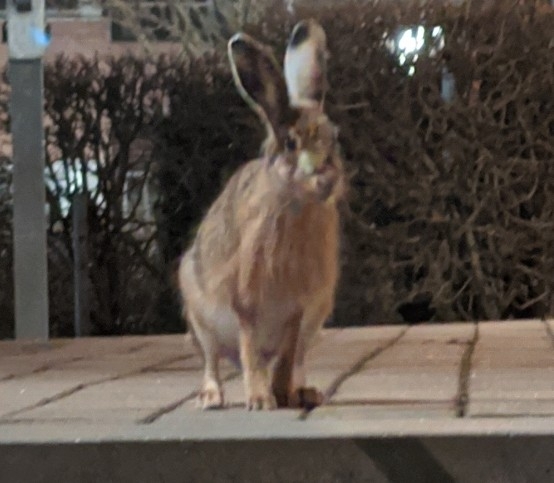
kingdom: Animalia
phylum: Chordata
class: Mammalia
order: Lagomorpha
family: Leporidae
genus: Lepus
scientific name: Lepus europaeus
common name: European hare
